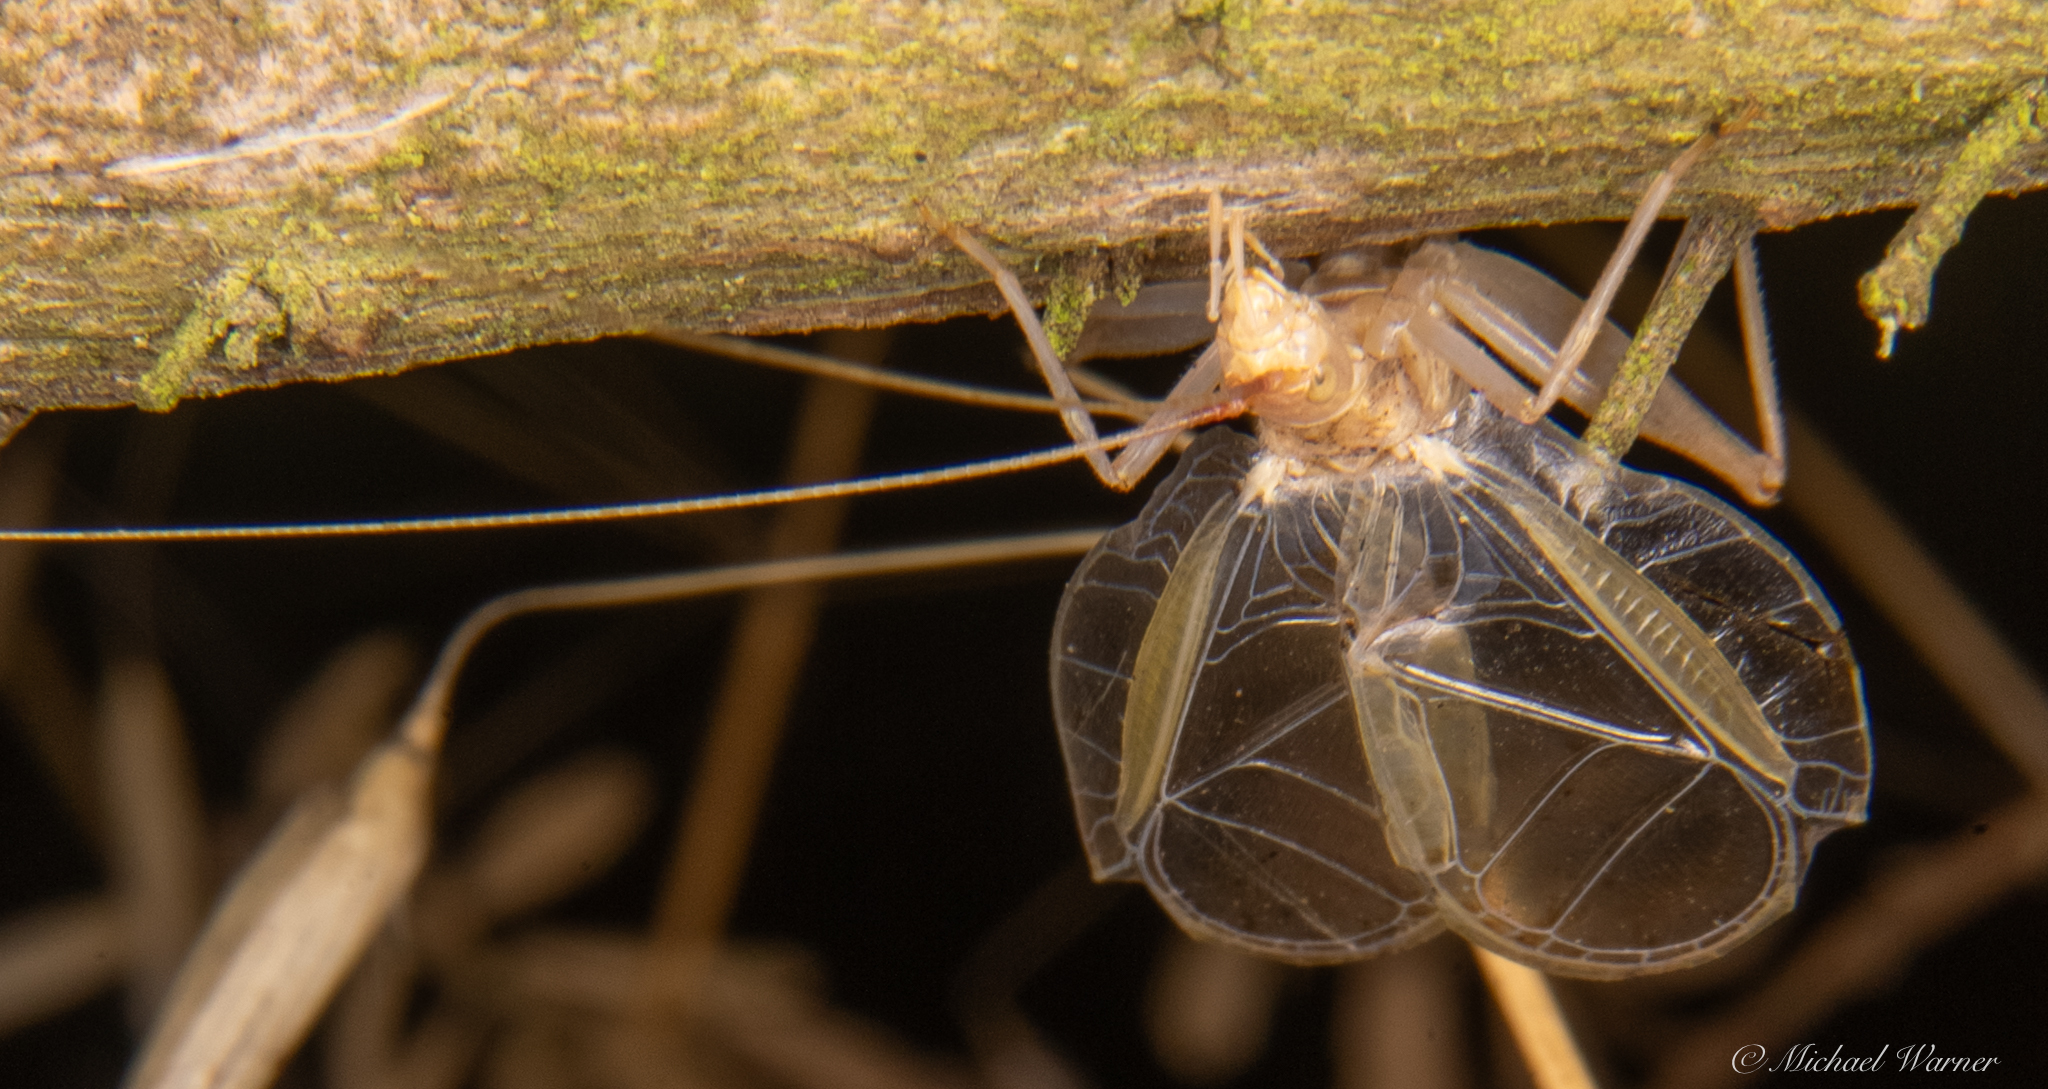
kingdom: Animalia
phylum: Arthropoda
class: Insecta
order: Orthoptera
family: Gryllidae
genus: Oecanthus
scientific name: Oecanthus californicus
